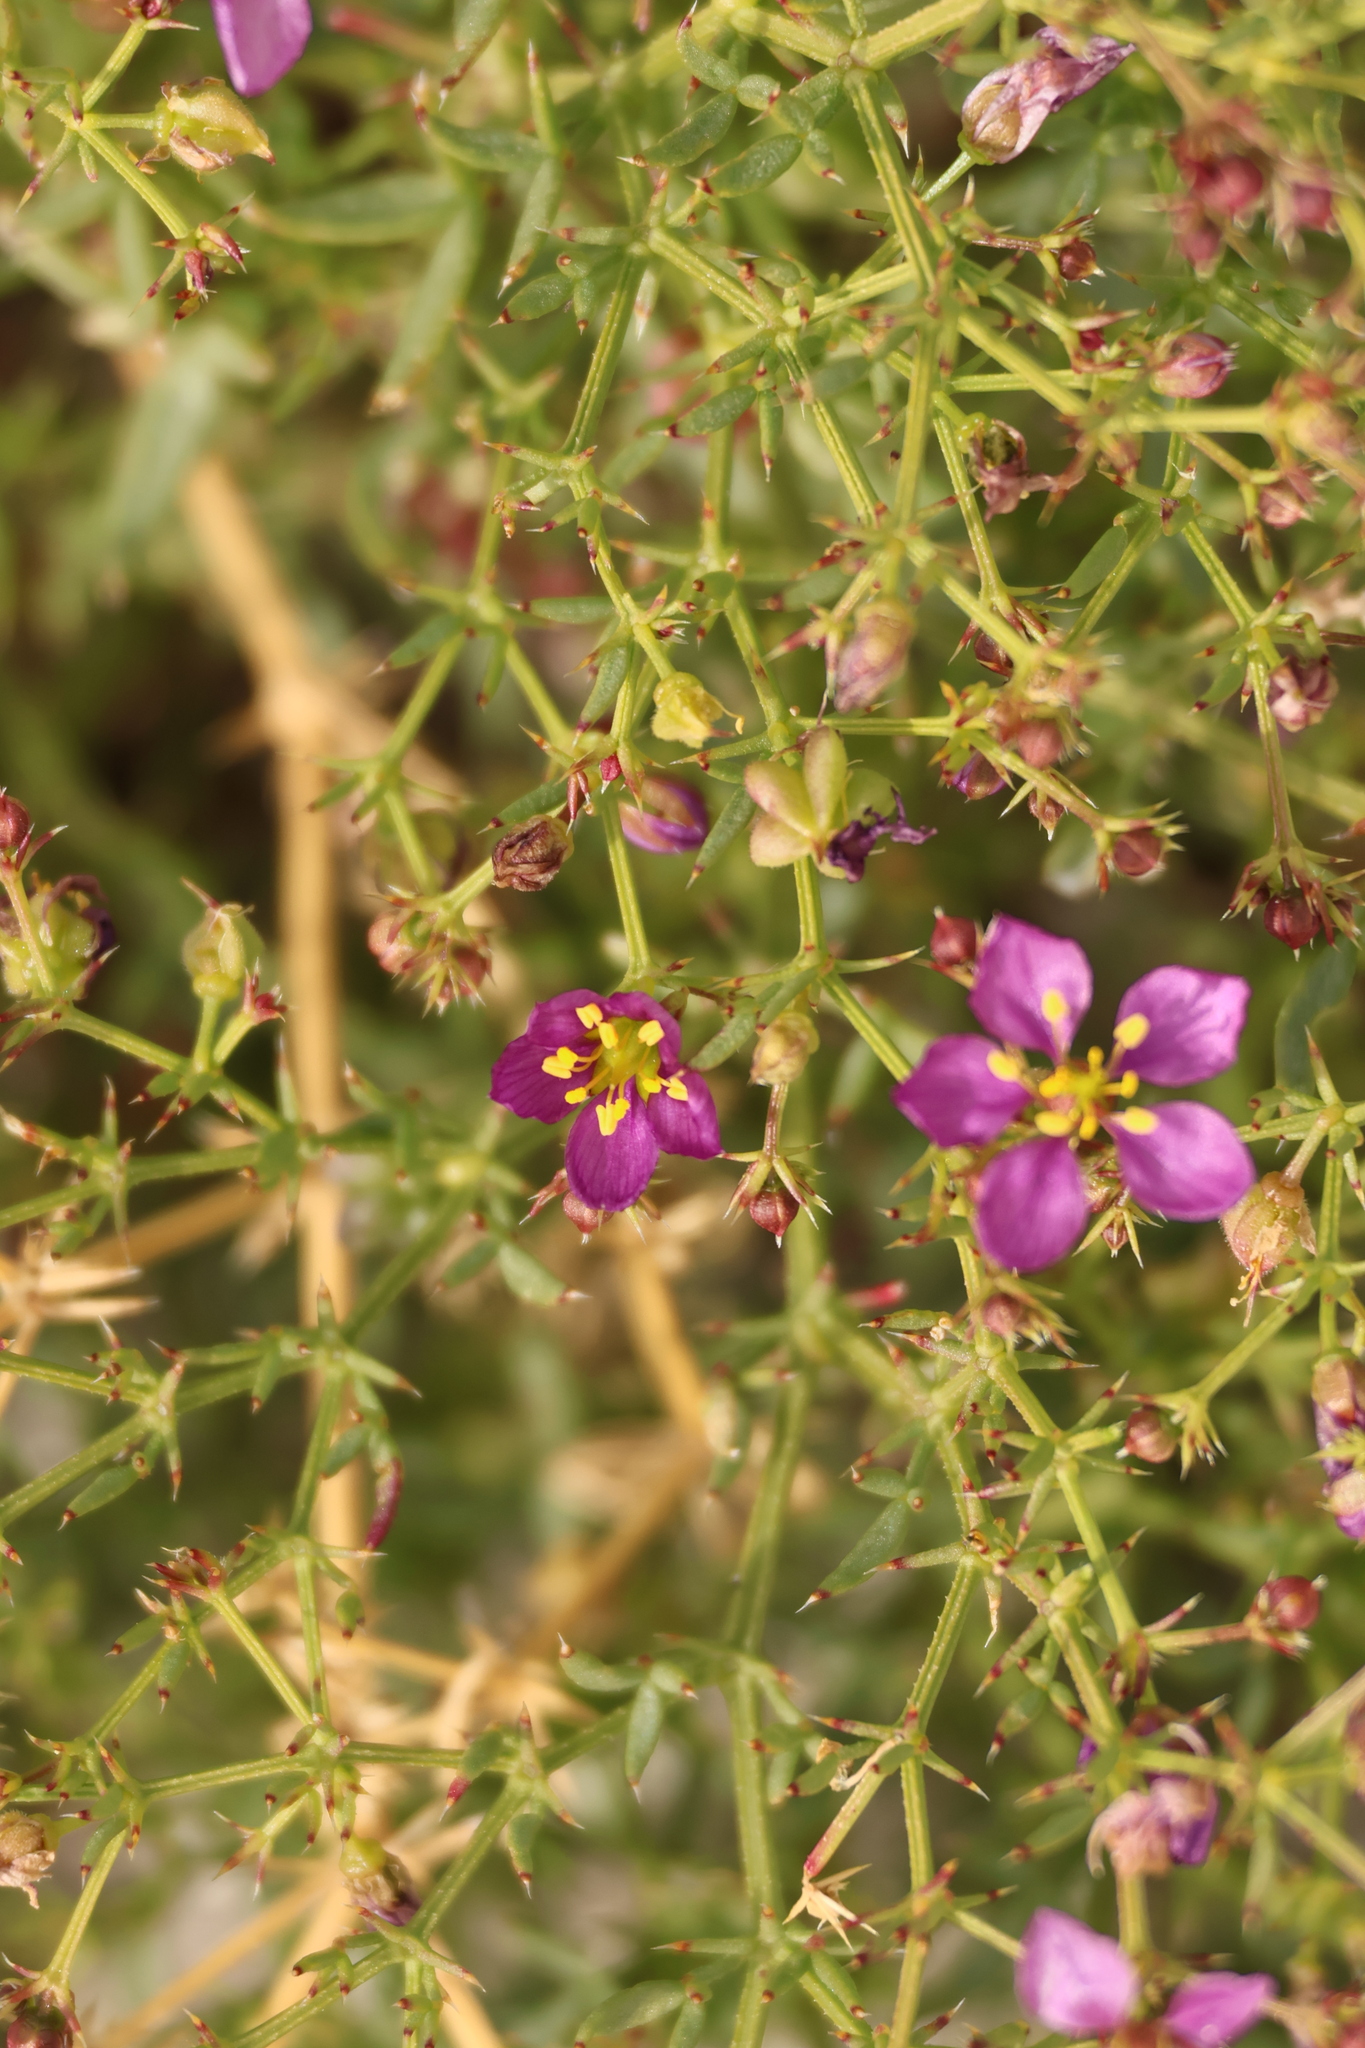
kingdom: Plantae
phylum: Tracheophyta
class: Magnoliopsida
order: Zygophyllales
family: Zygophyllaceae
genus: Fagonia
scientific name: Fagonia laevis
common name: California fagonbush
